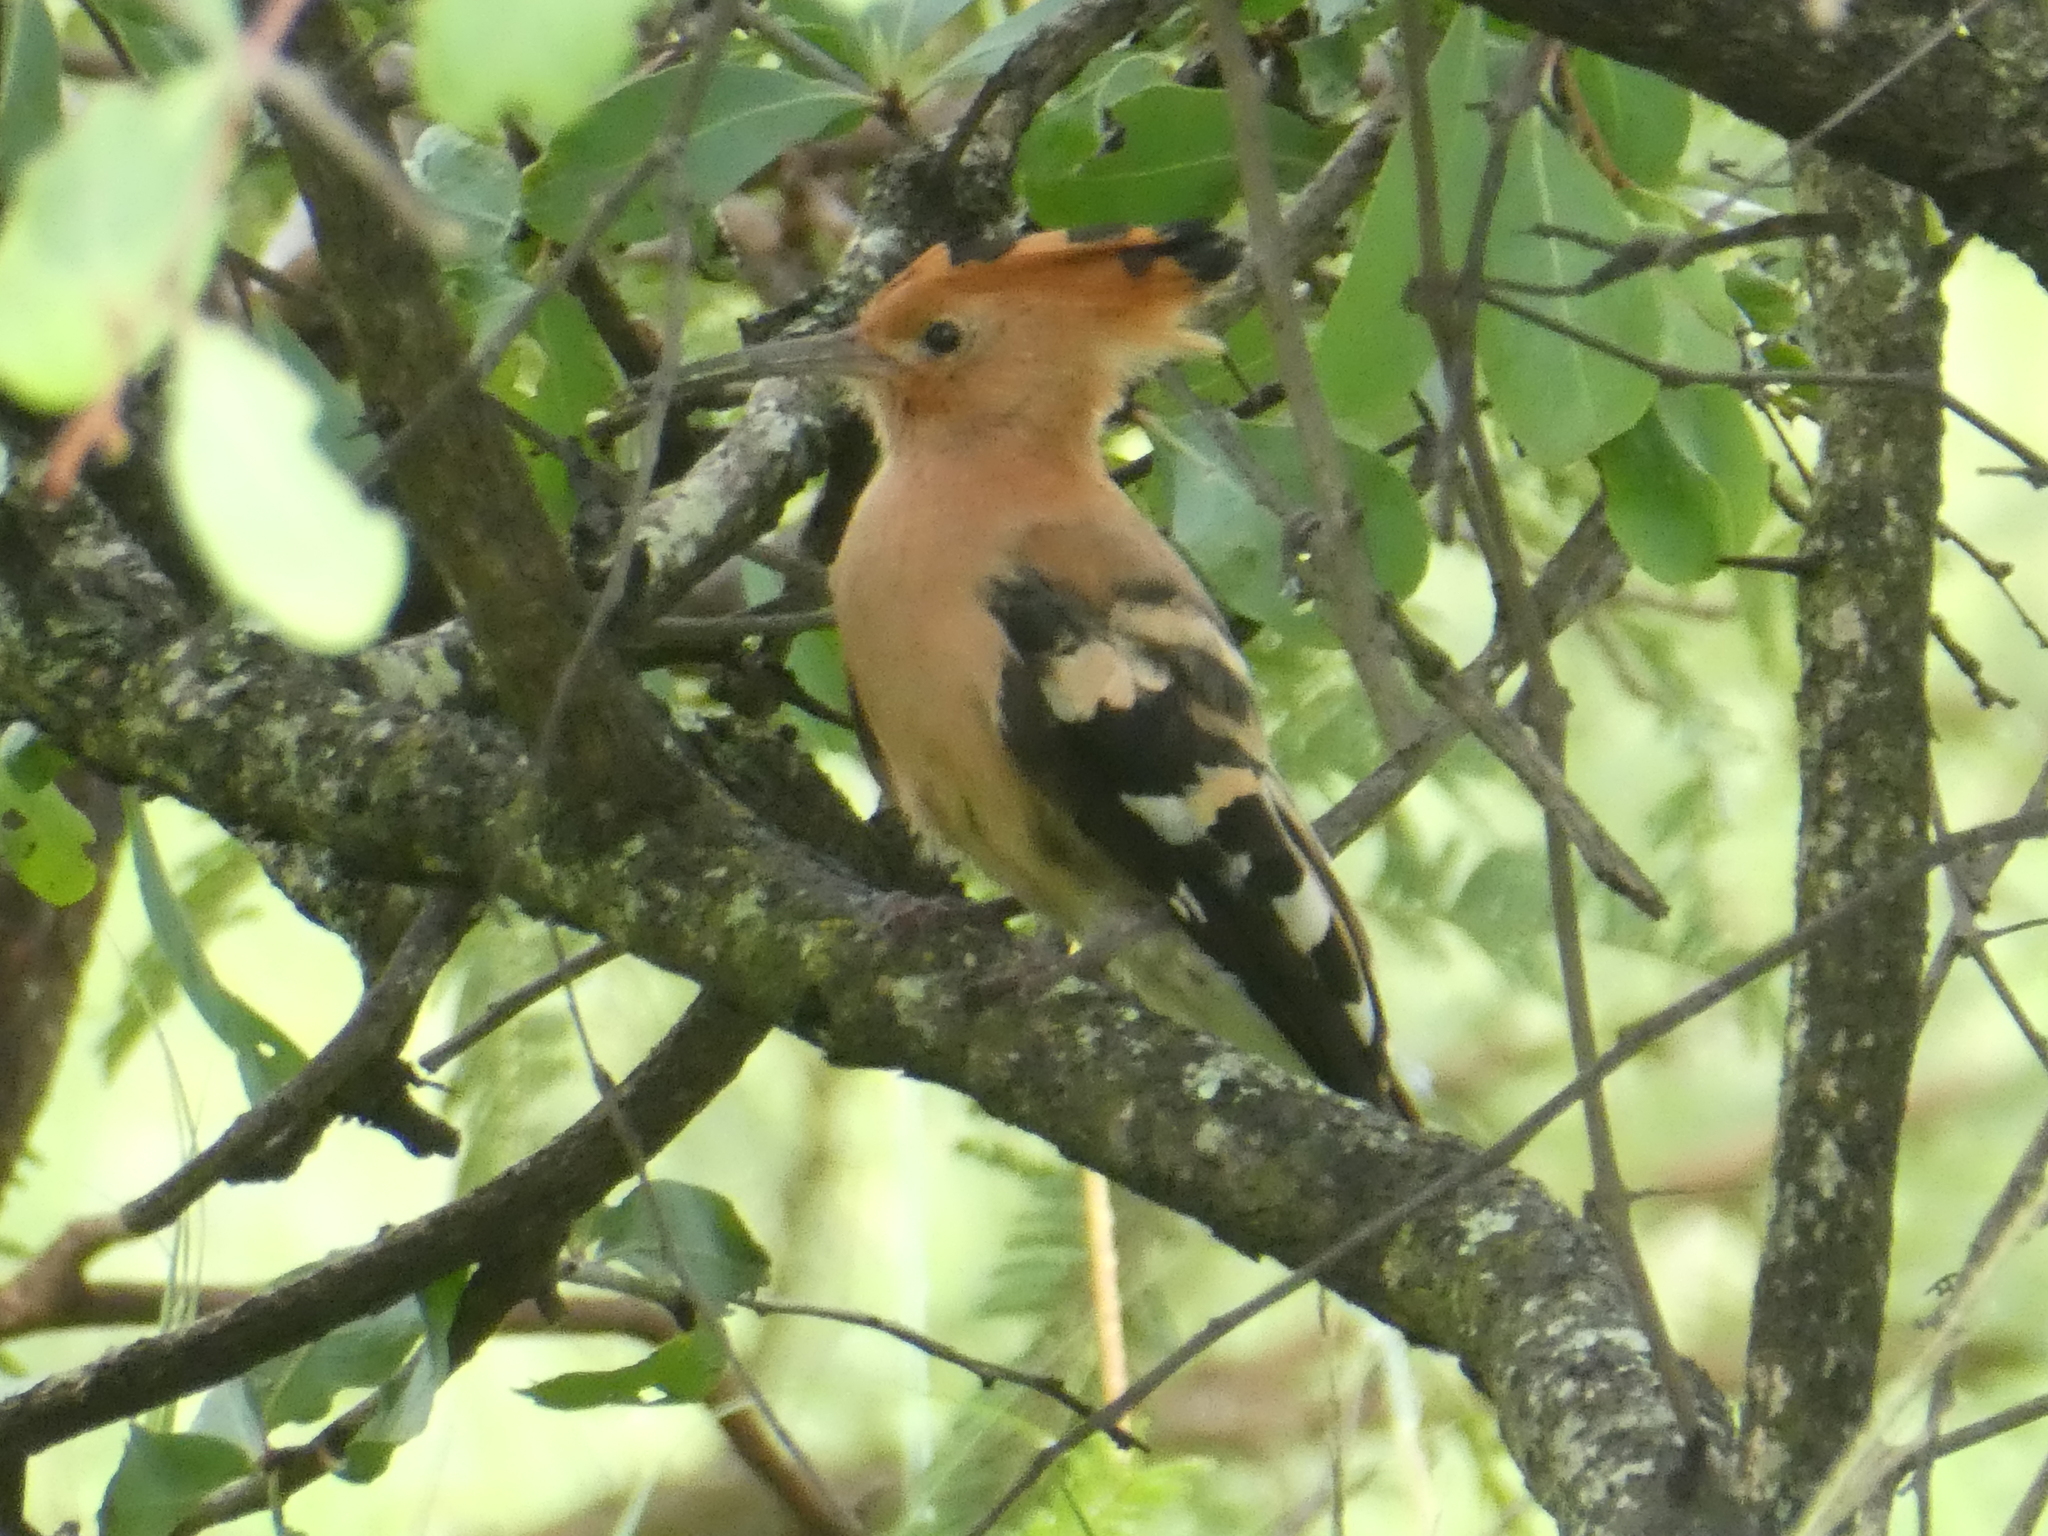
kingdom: Animalia
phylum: Chordata
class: Aves
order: Bucerotiformes
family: Upupidae
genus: Upupa
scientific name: Upupa africana
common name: African hoopoe
